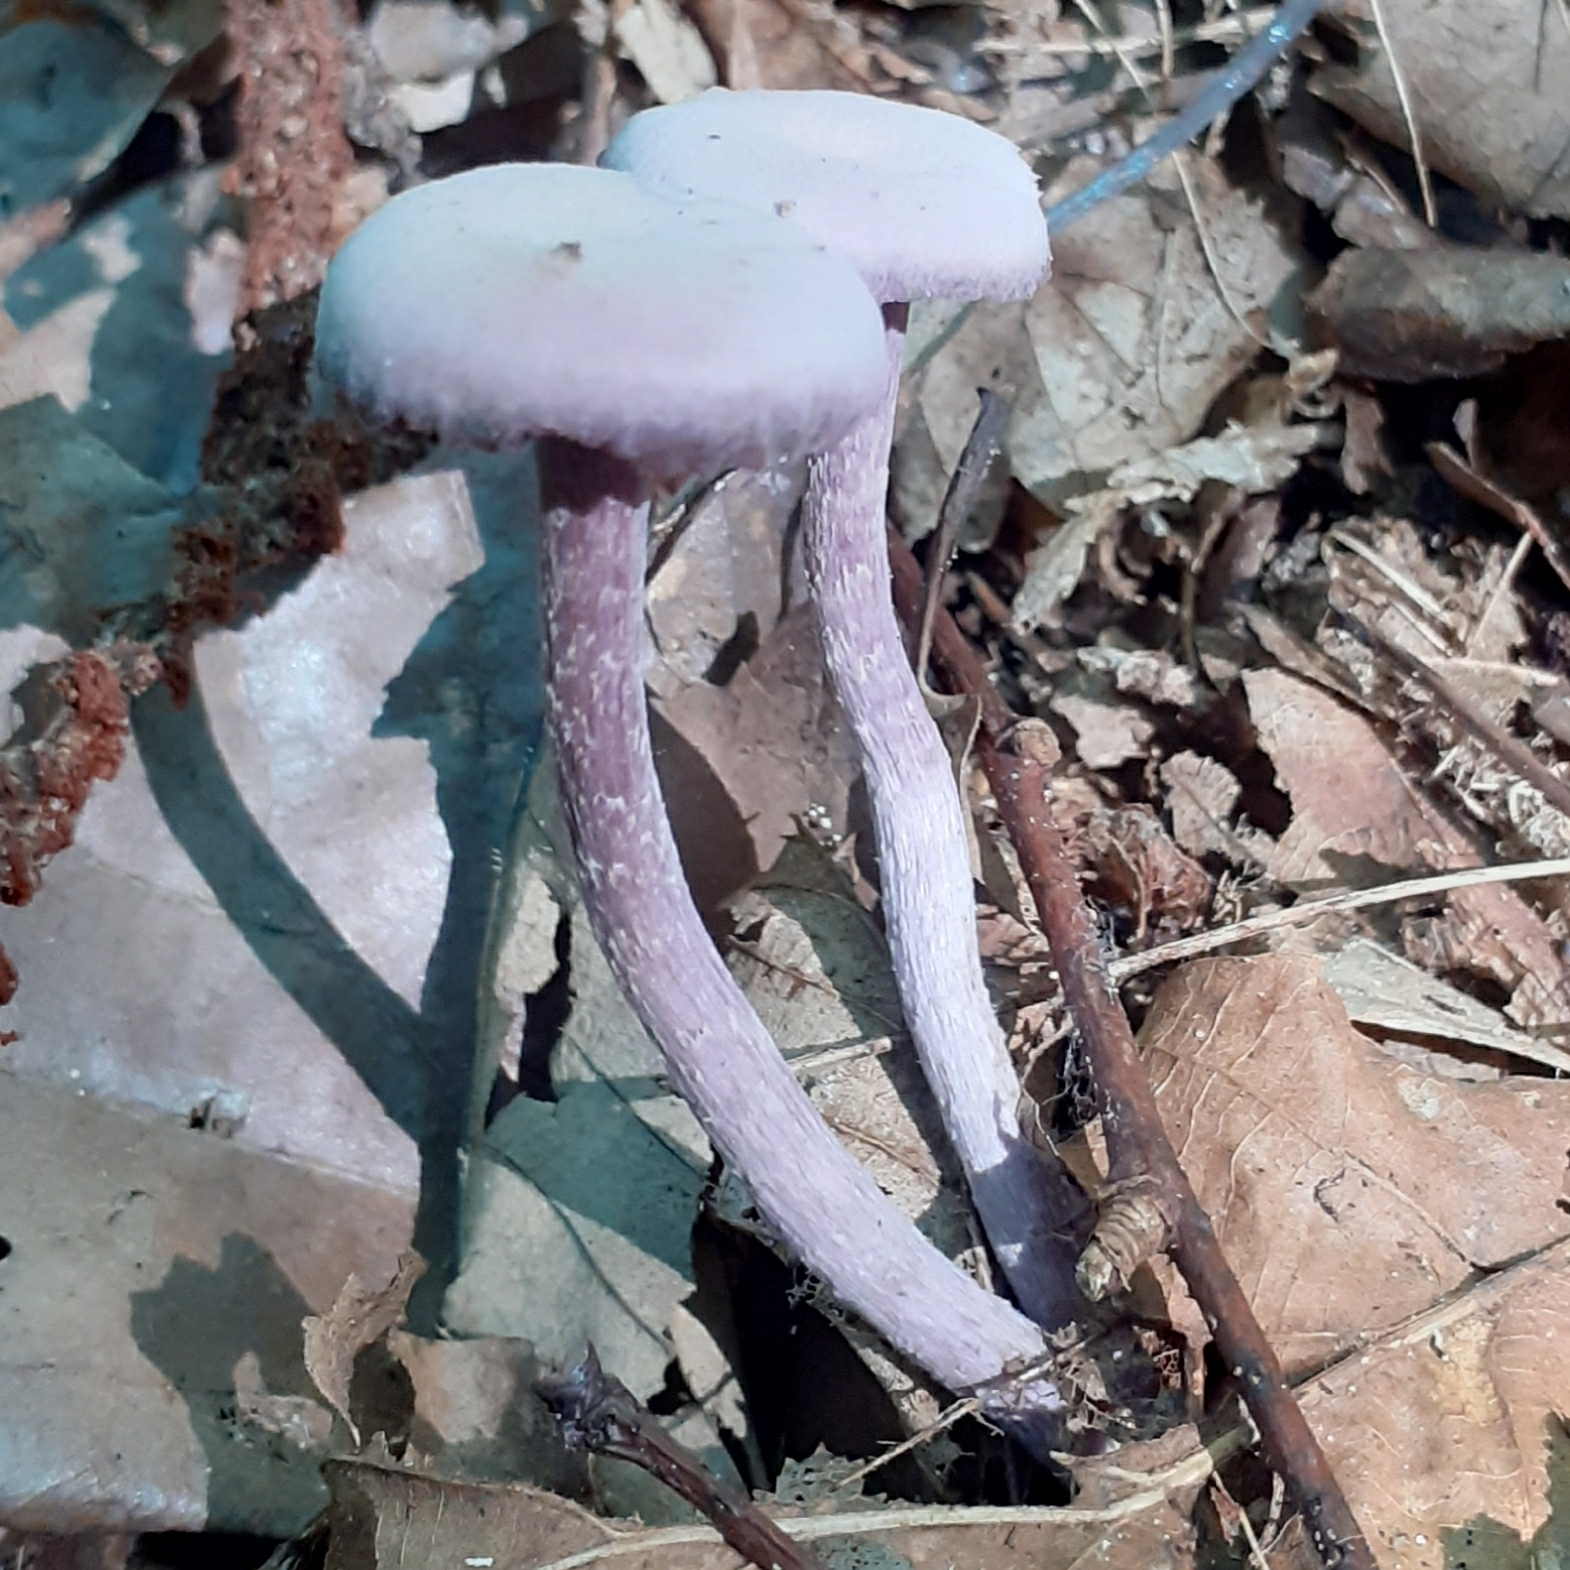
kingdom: Fungi
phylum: Basidiomycota
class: Agaricomycetes
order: Agaricales
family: Hydnangiaceae
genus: Laccaria
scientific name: Laccaria amethystina
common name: Amethyst deceiver
